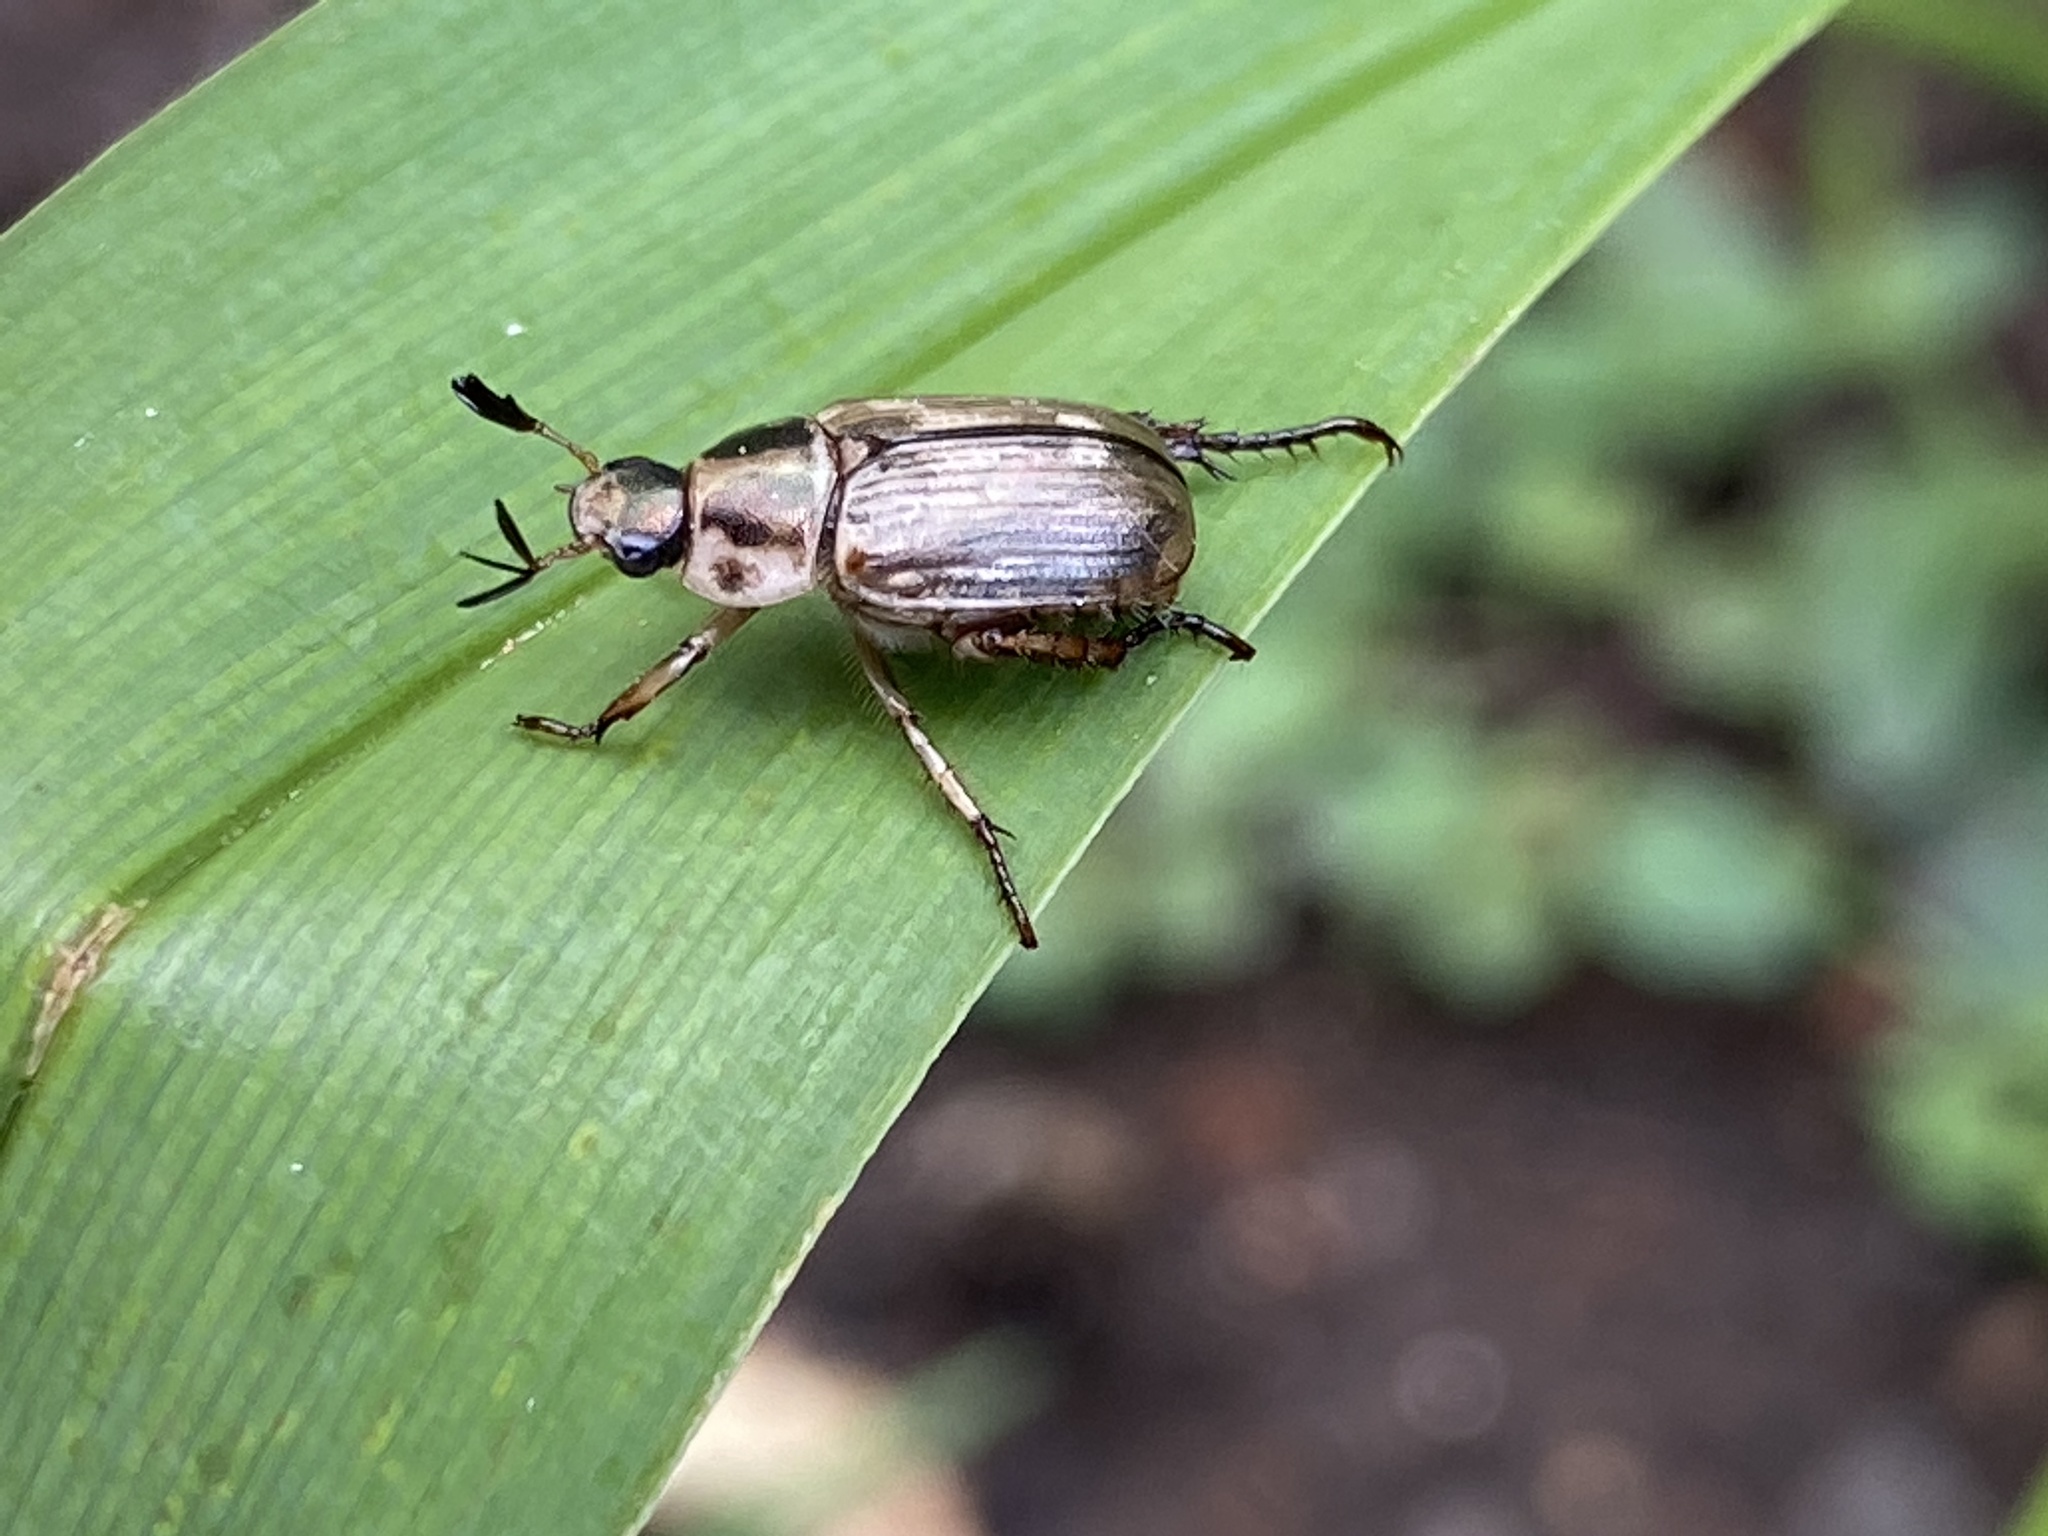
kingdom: Animalia
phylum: Arthropoda
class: Insecta
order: Coleoptera
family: Scarabaeidae
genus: Exomala
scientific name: Exomala orientalis
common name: Oriental beetle
